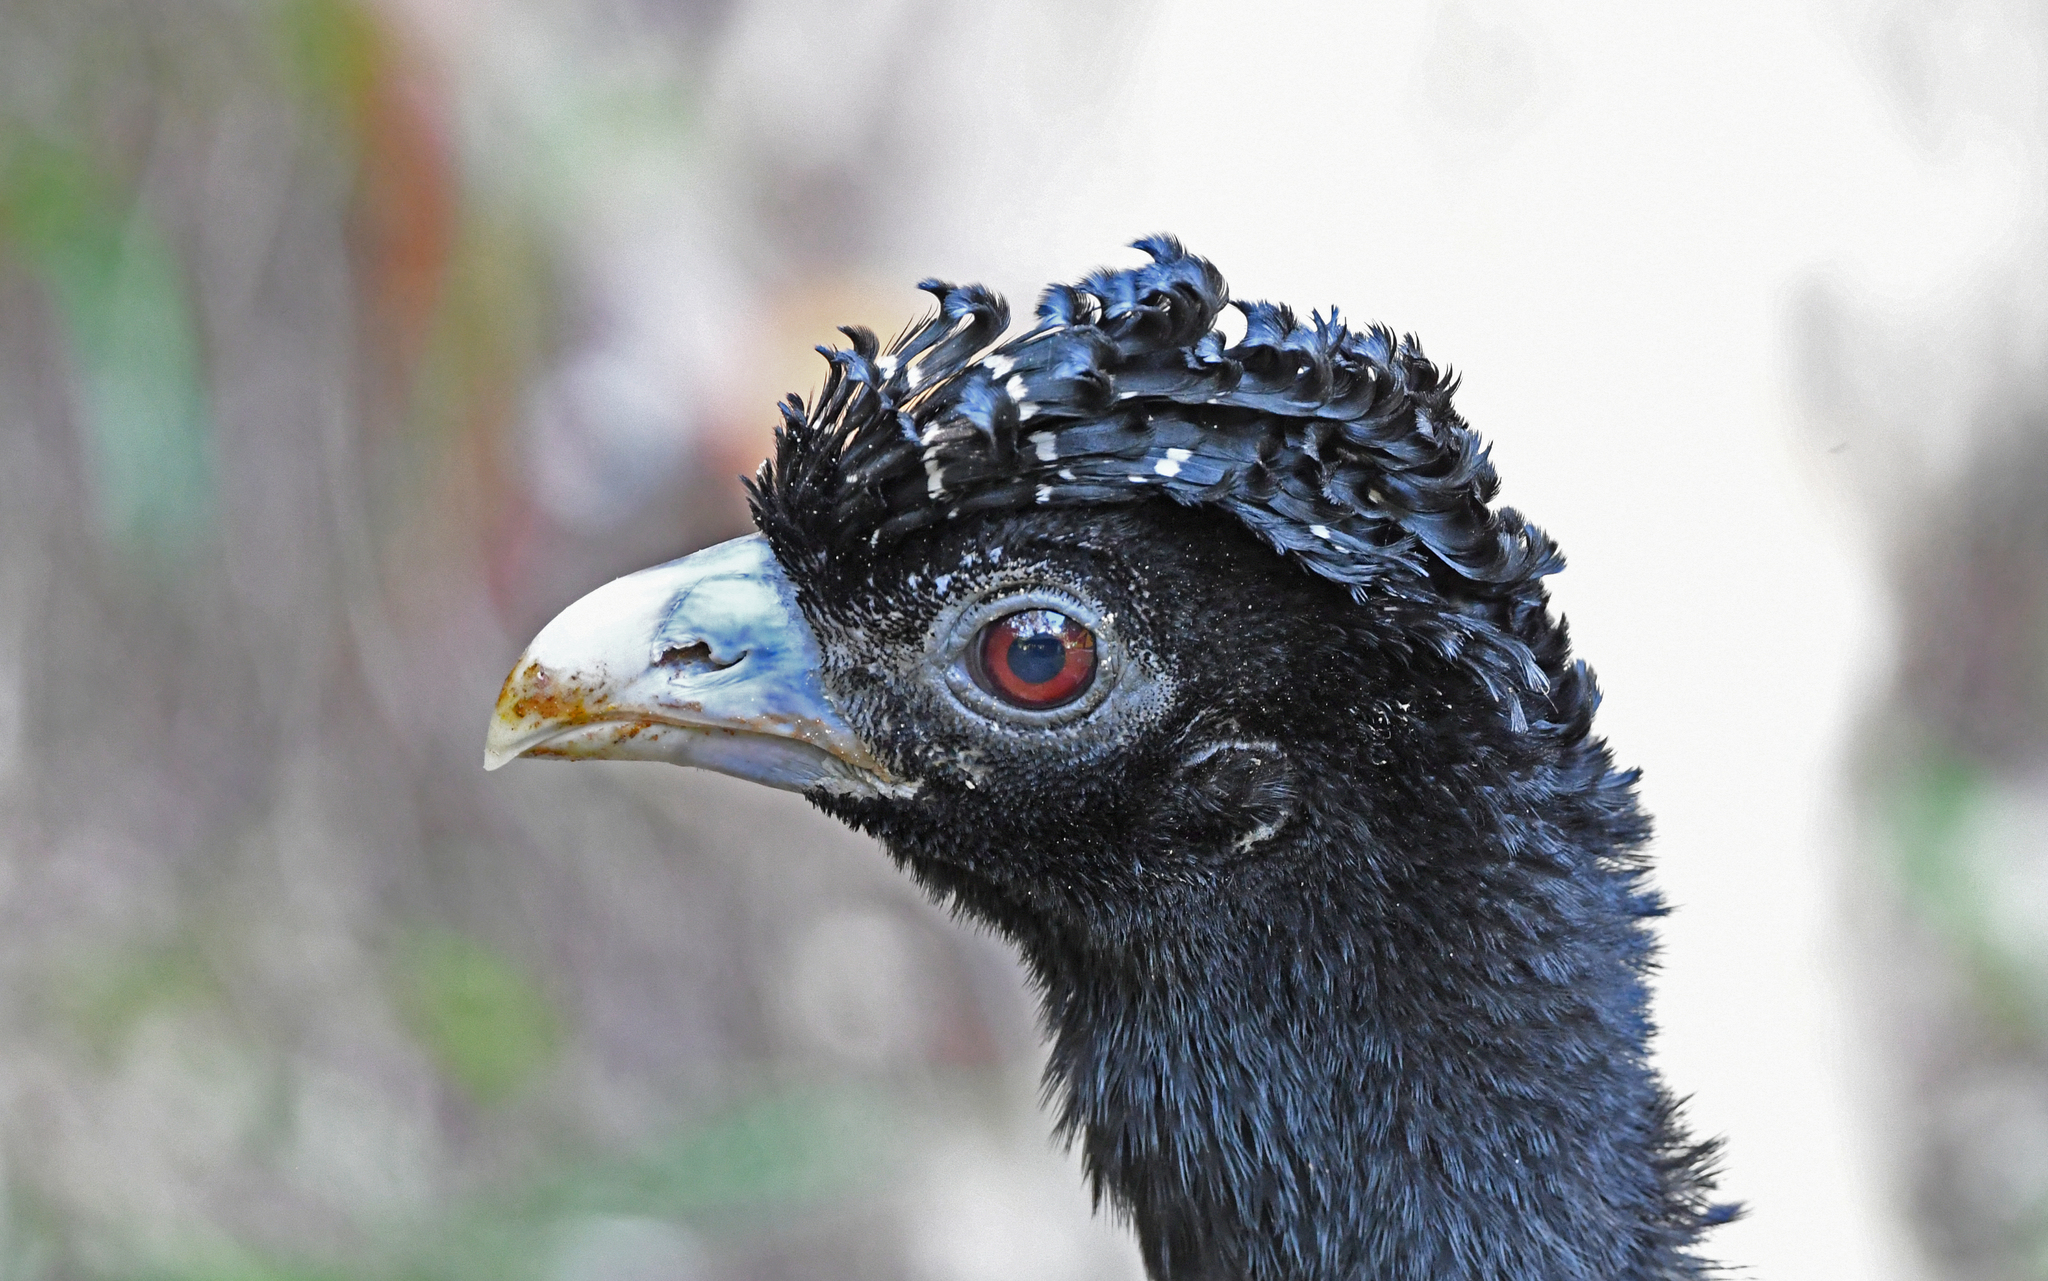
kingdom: Animalia
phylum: Chordata
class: Aves
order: Galliformes
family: Cracidae
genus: Crax
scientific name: Crax alberti
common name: Blue-billed curassow
